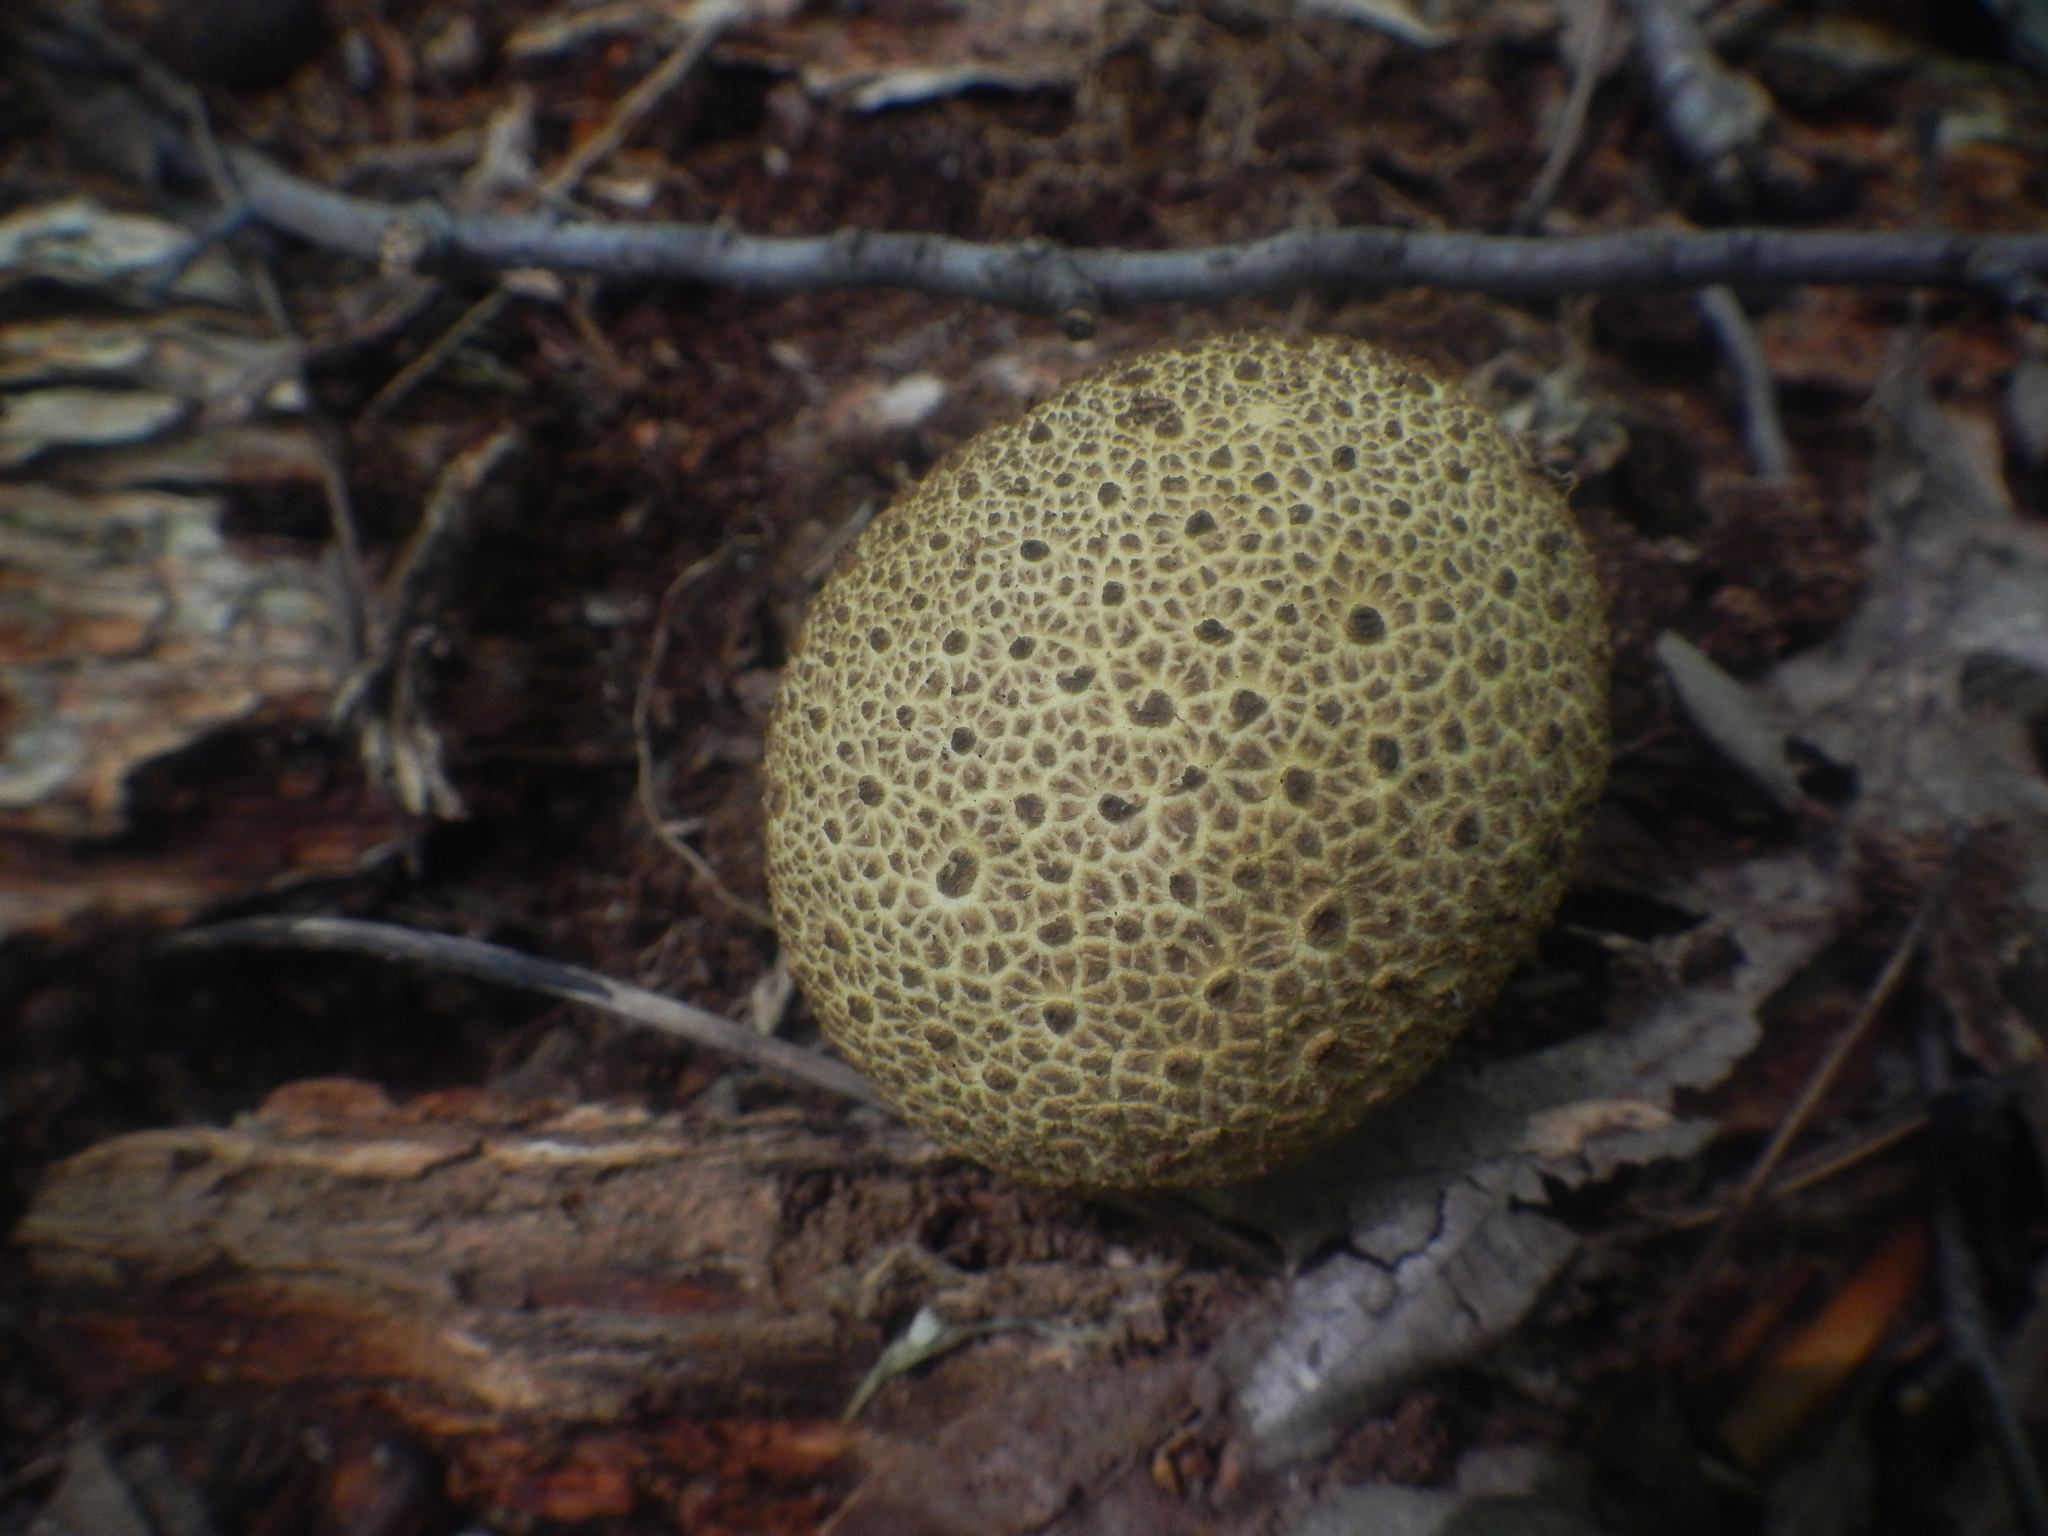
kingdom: Fungi
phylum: Basidiomycota
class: Agaricomycetes
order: Boletales
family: Sclerodermataceae
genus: Scleroderma
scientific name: Scleroderma citrinum
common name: Common earthball
